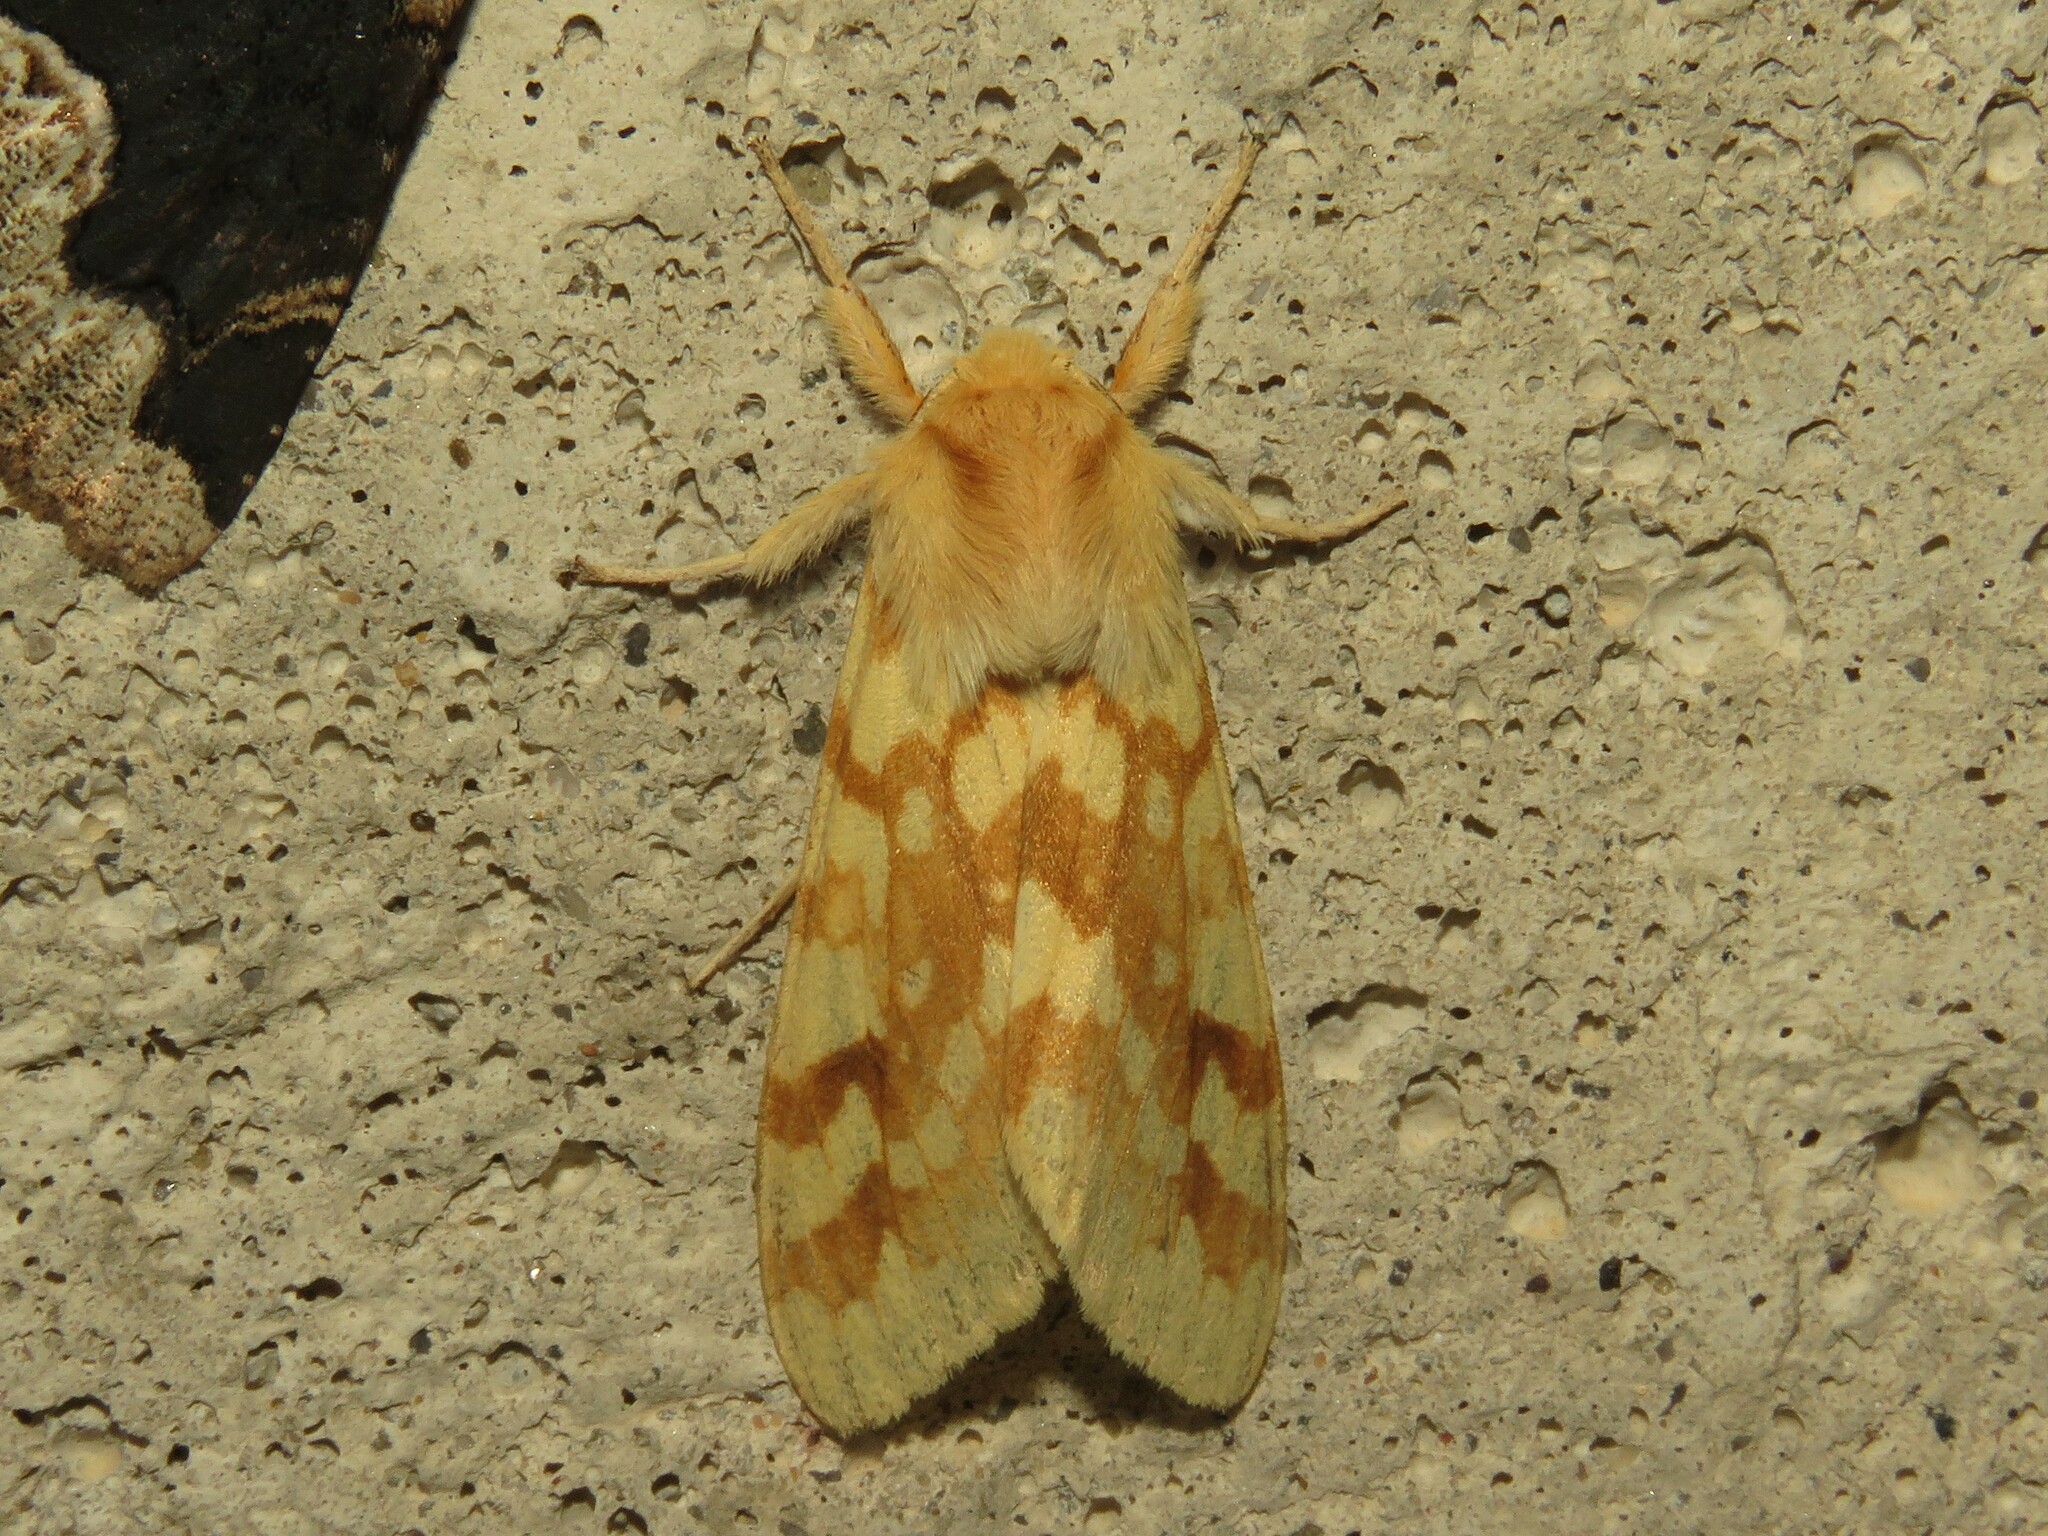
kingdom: Animalia
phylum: Arthropoda
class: Insecta
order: Lepidoptera
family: Erebidae
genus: Lophocampa
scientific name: Lophocampa maculata
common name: Spotted tussock moth
